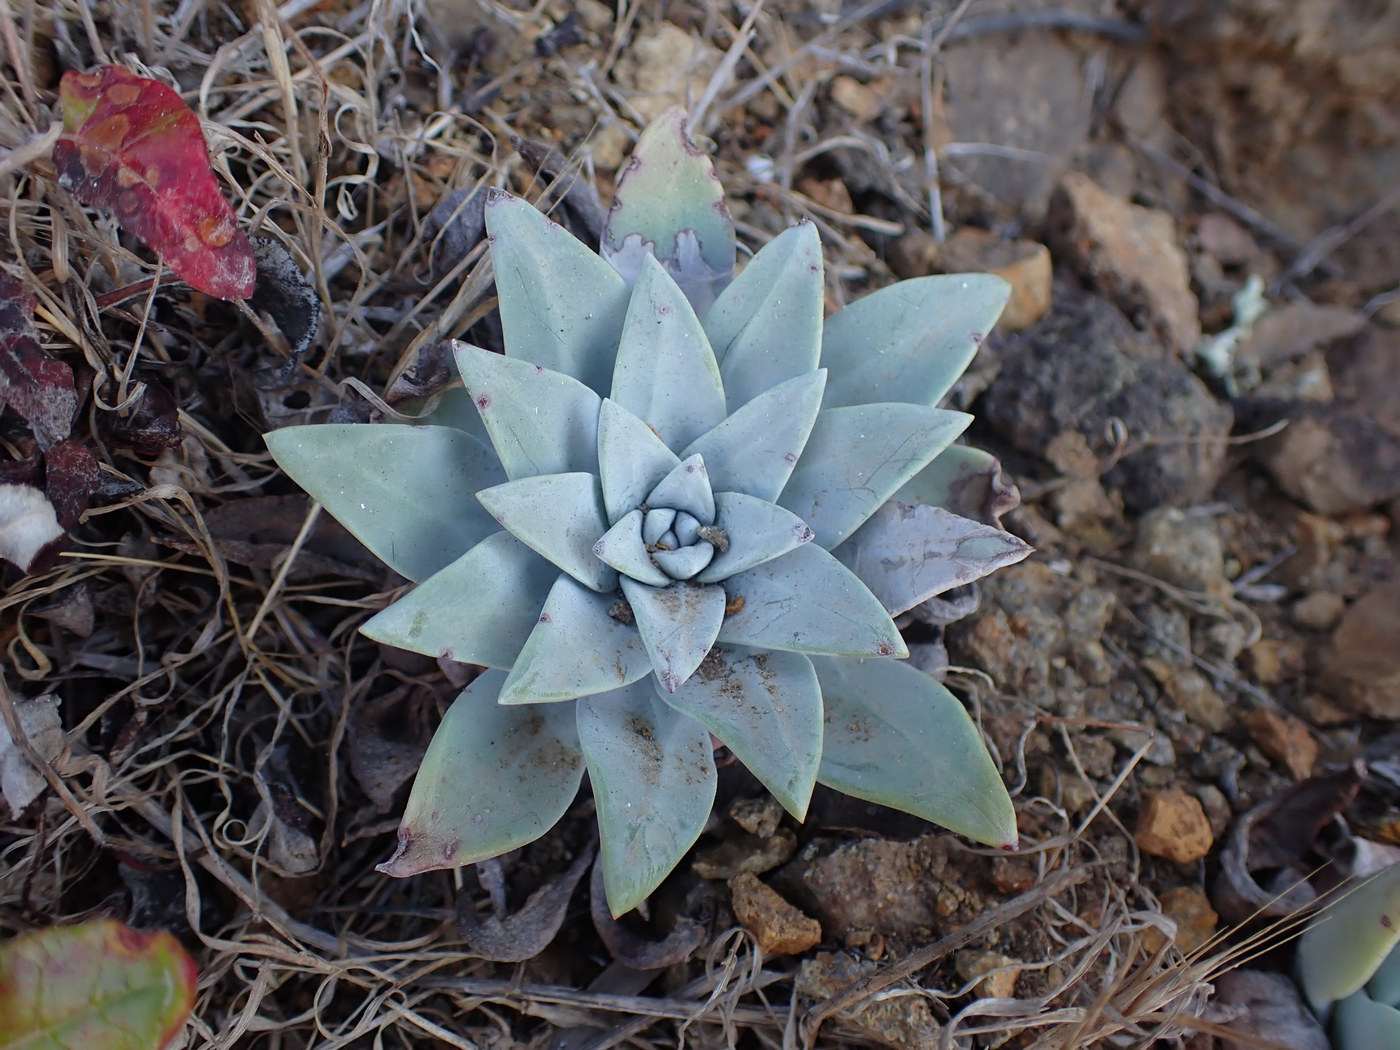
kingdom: Plantae
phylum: Tracheophyta
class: Magnoliopsida
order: Saxifragales
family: Crassulaceae
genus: Dudleya
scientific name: Dudleya greenei
